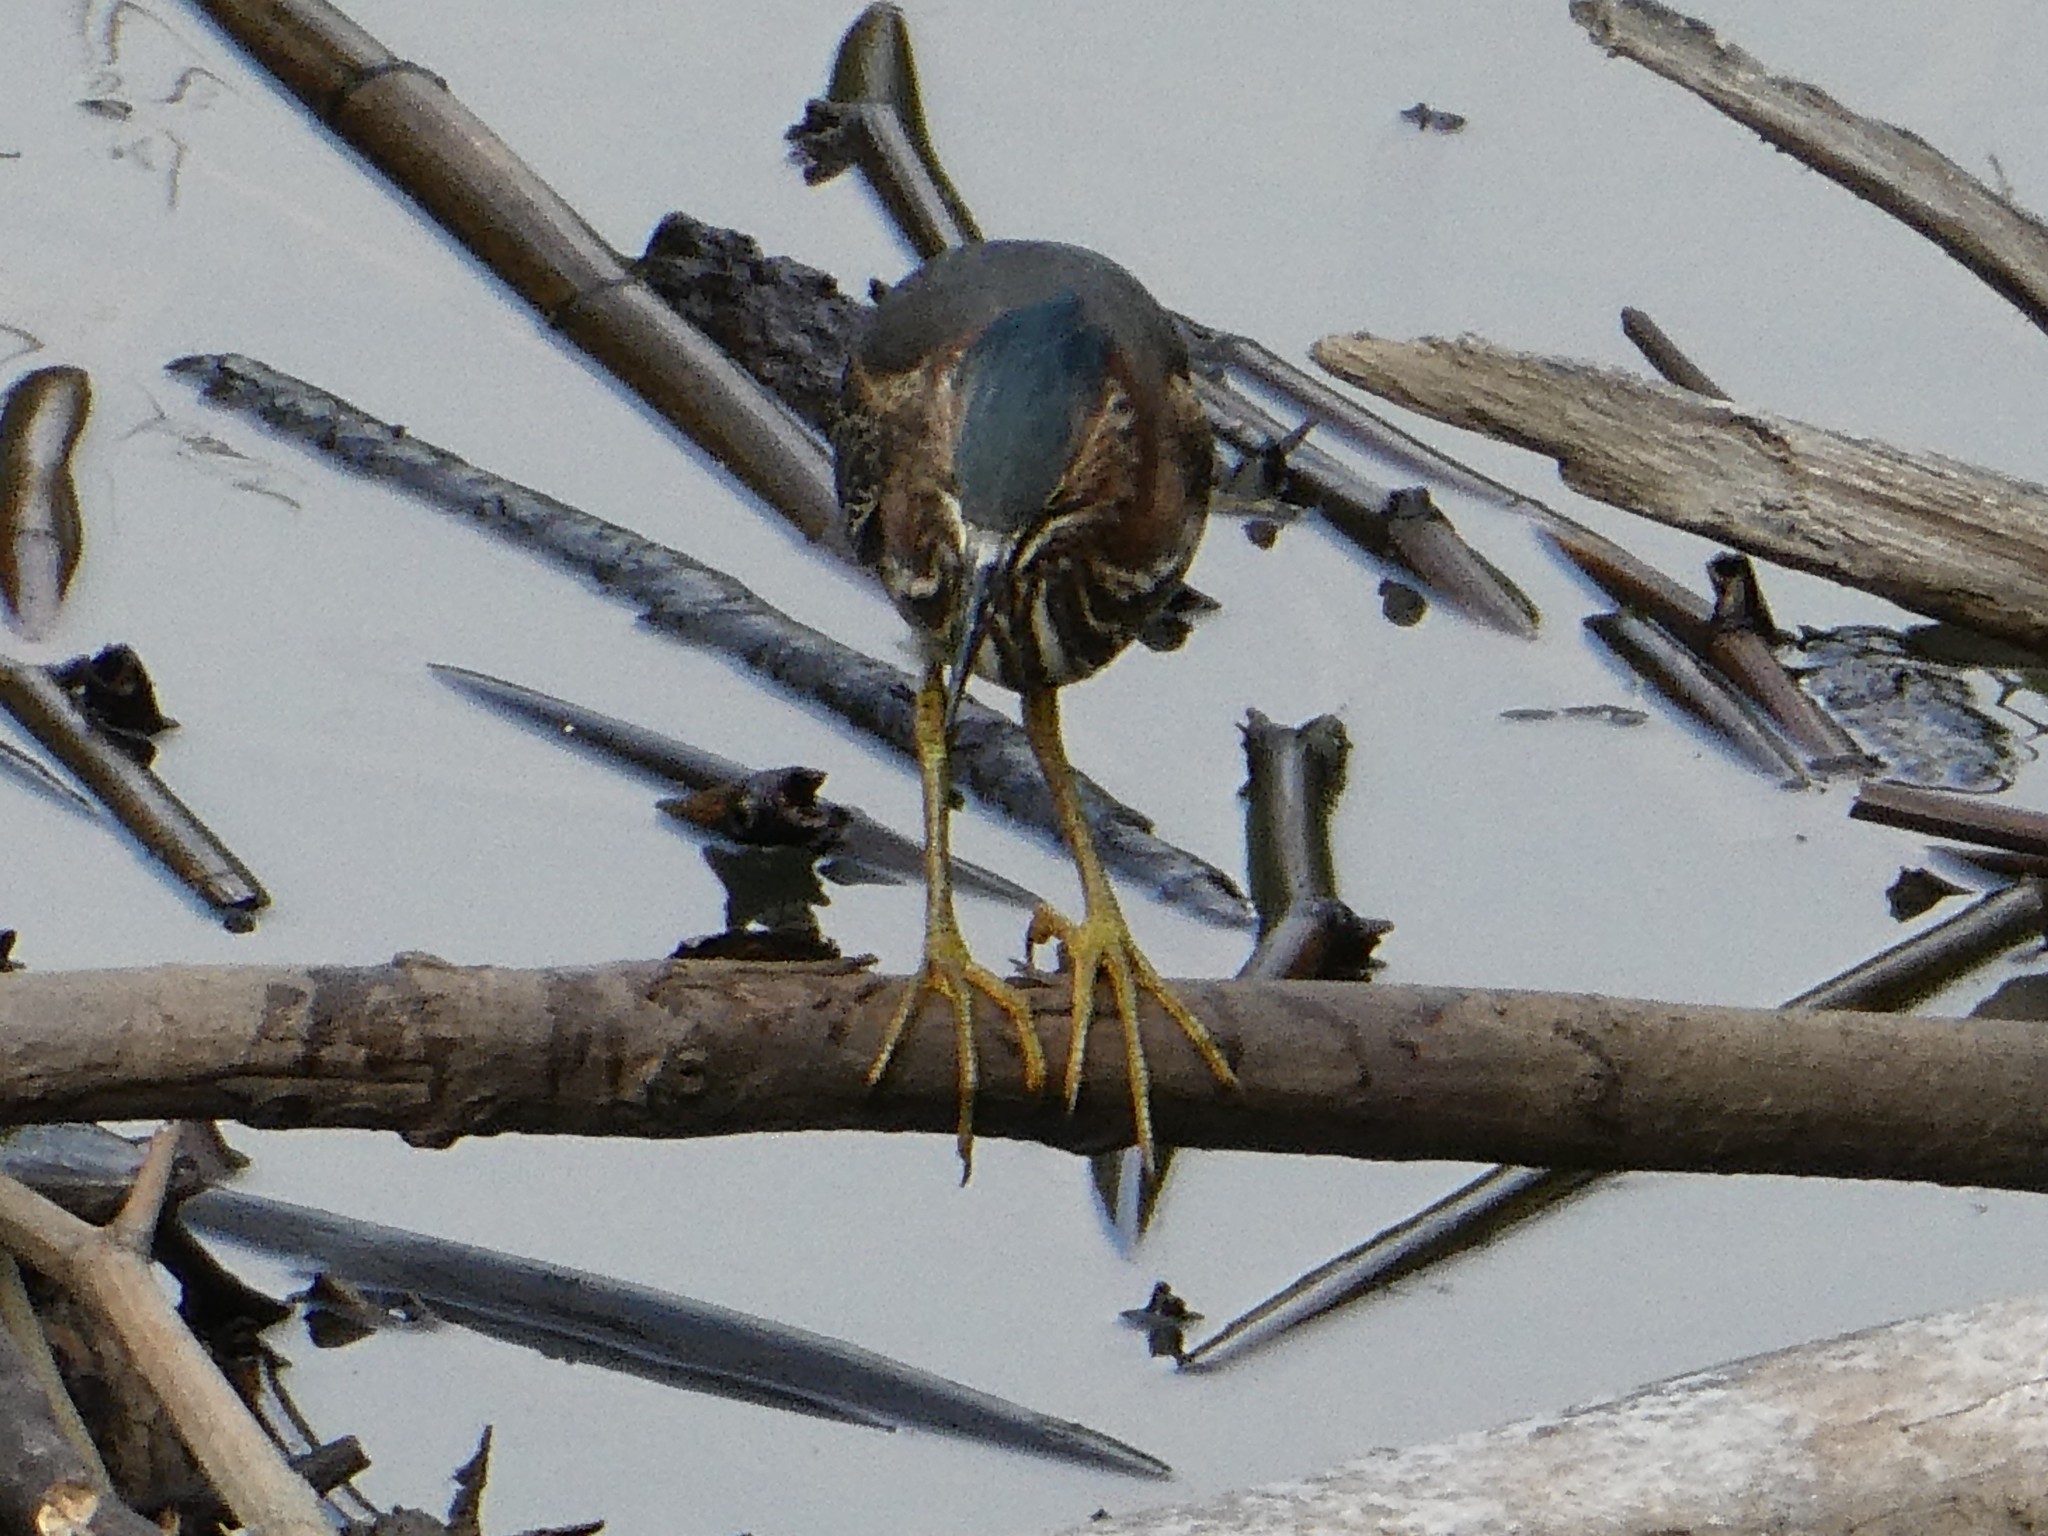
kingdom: Animalia
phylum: Chordata
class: Aves
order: Pelecaniformes
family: Ardeidae
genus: Butorides
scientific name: Butorides virescens
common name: Green heron
